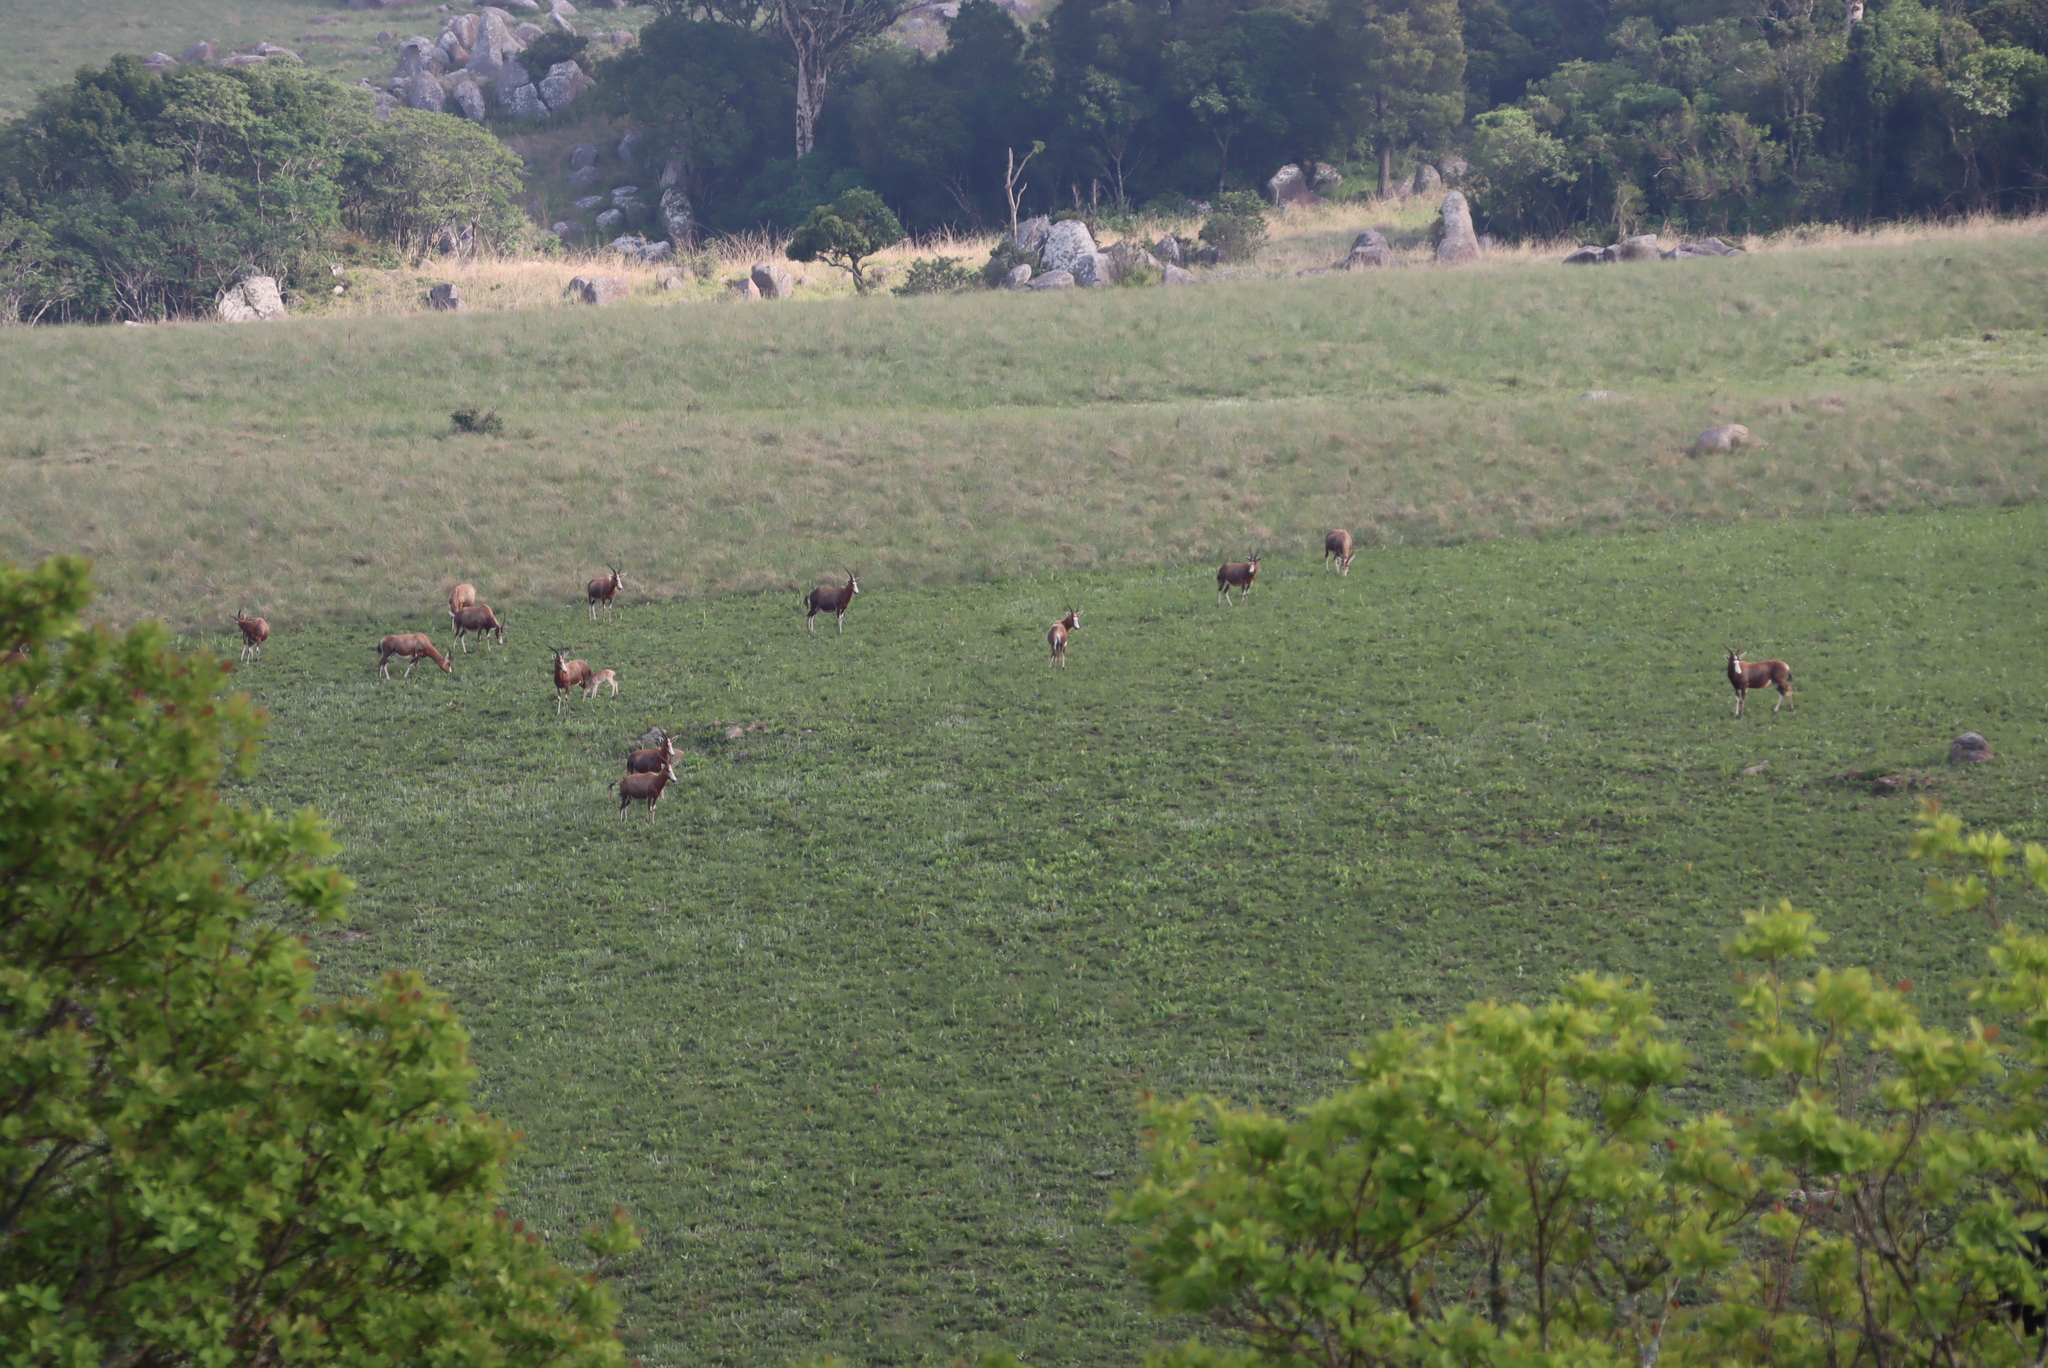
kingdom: Animalia
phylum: Chordata
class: Mammalia
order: Artiodactyla
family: Bovidae
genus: Damaliscus
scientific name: Damaliscus pygargus
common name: Bontebok
